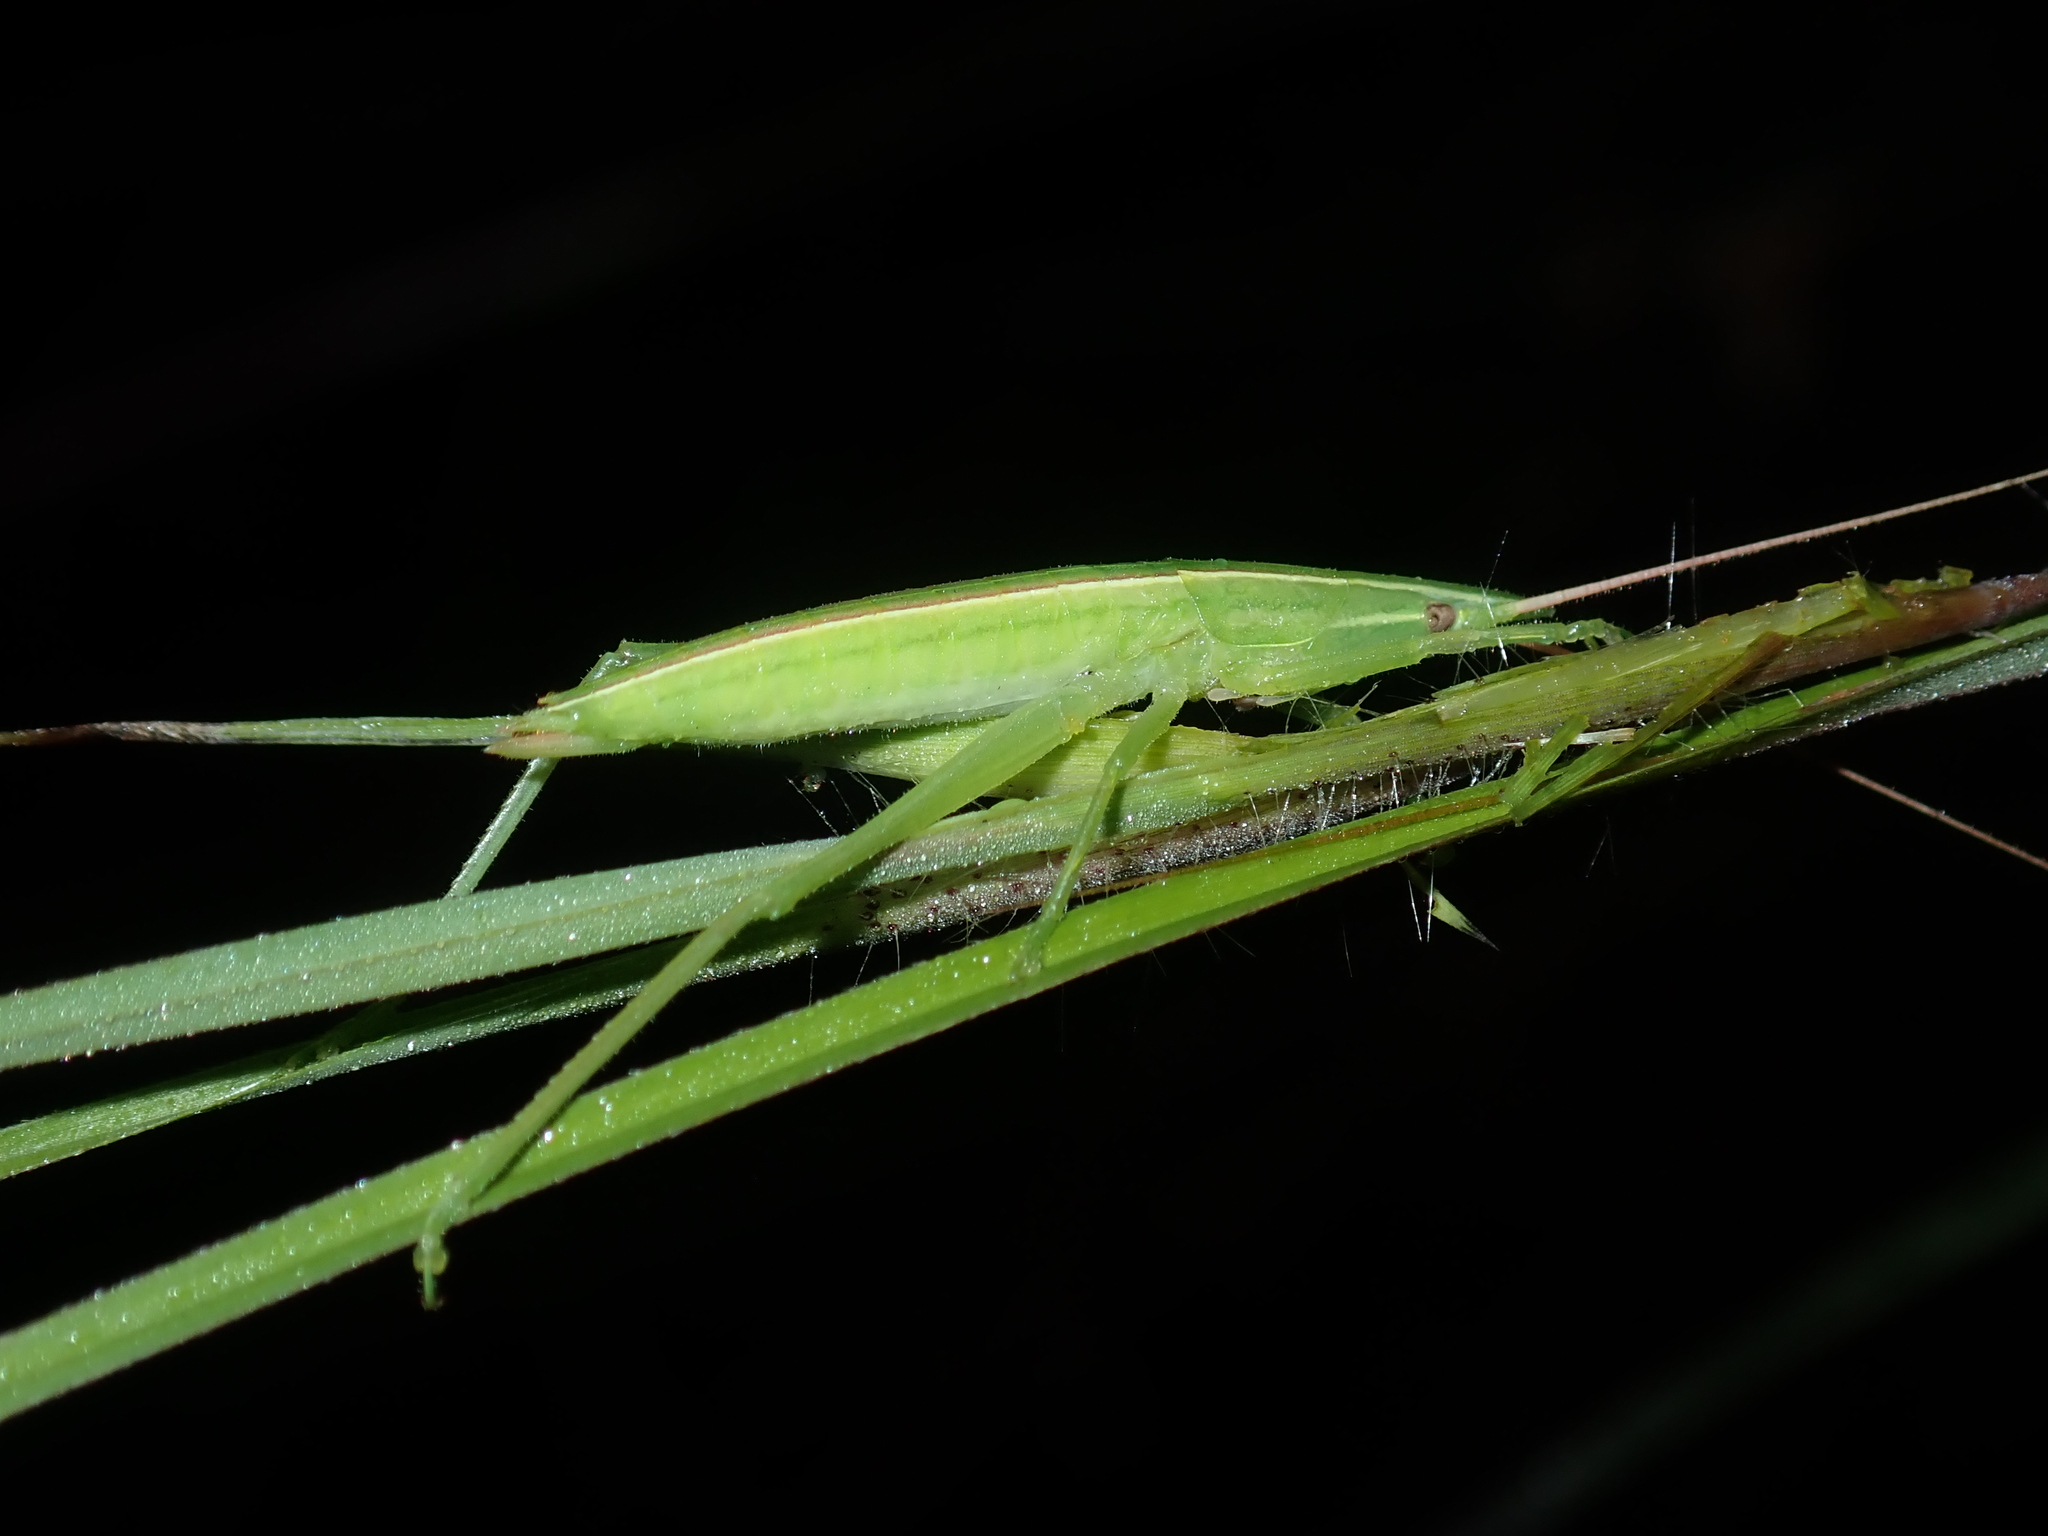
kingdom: Animalia
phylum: Arthropoda
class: Insecta
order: Orthoptera
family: Tettigoniidae
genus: Pseudorhynchus
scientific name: Pseudorhynchus lessonii
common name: Lesson's mimicking snout nose
